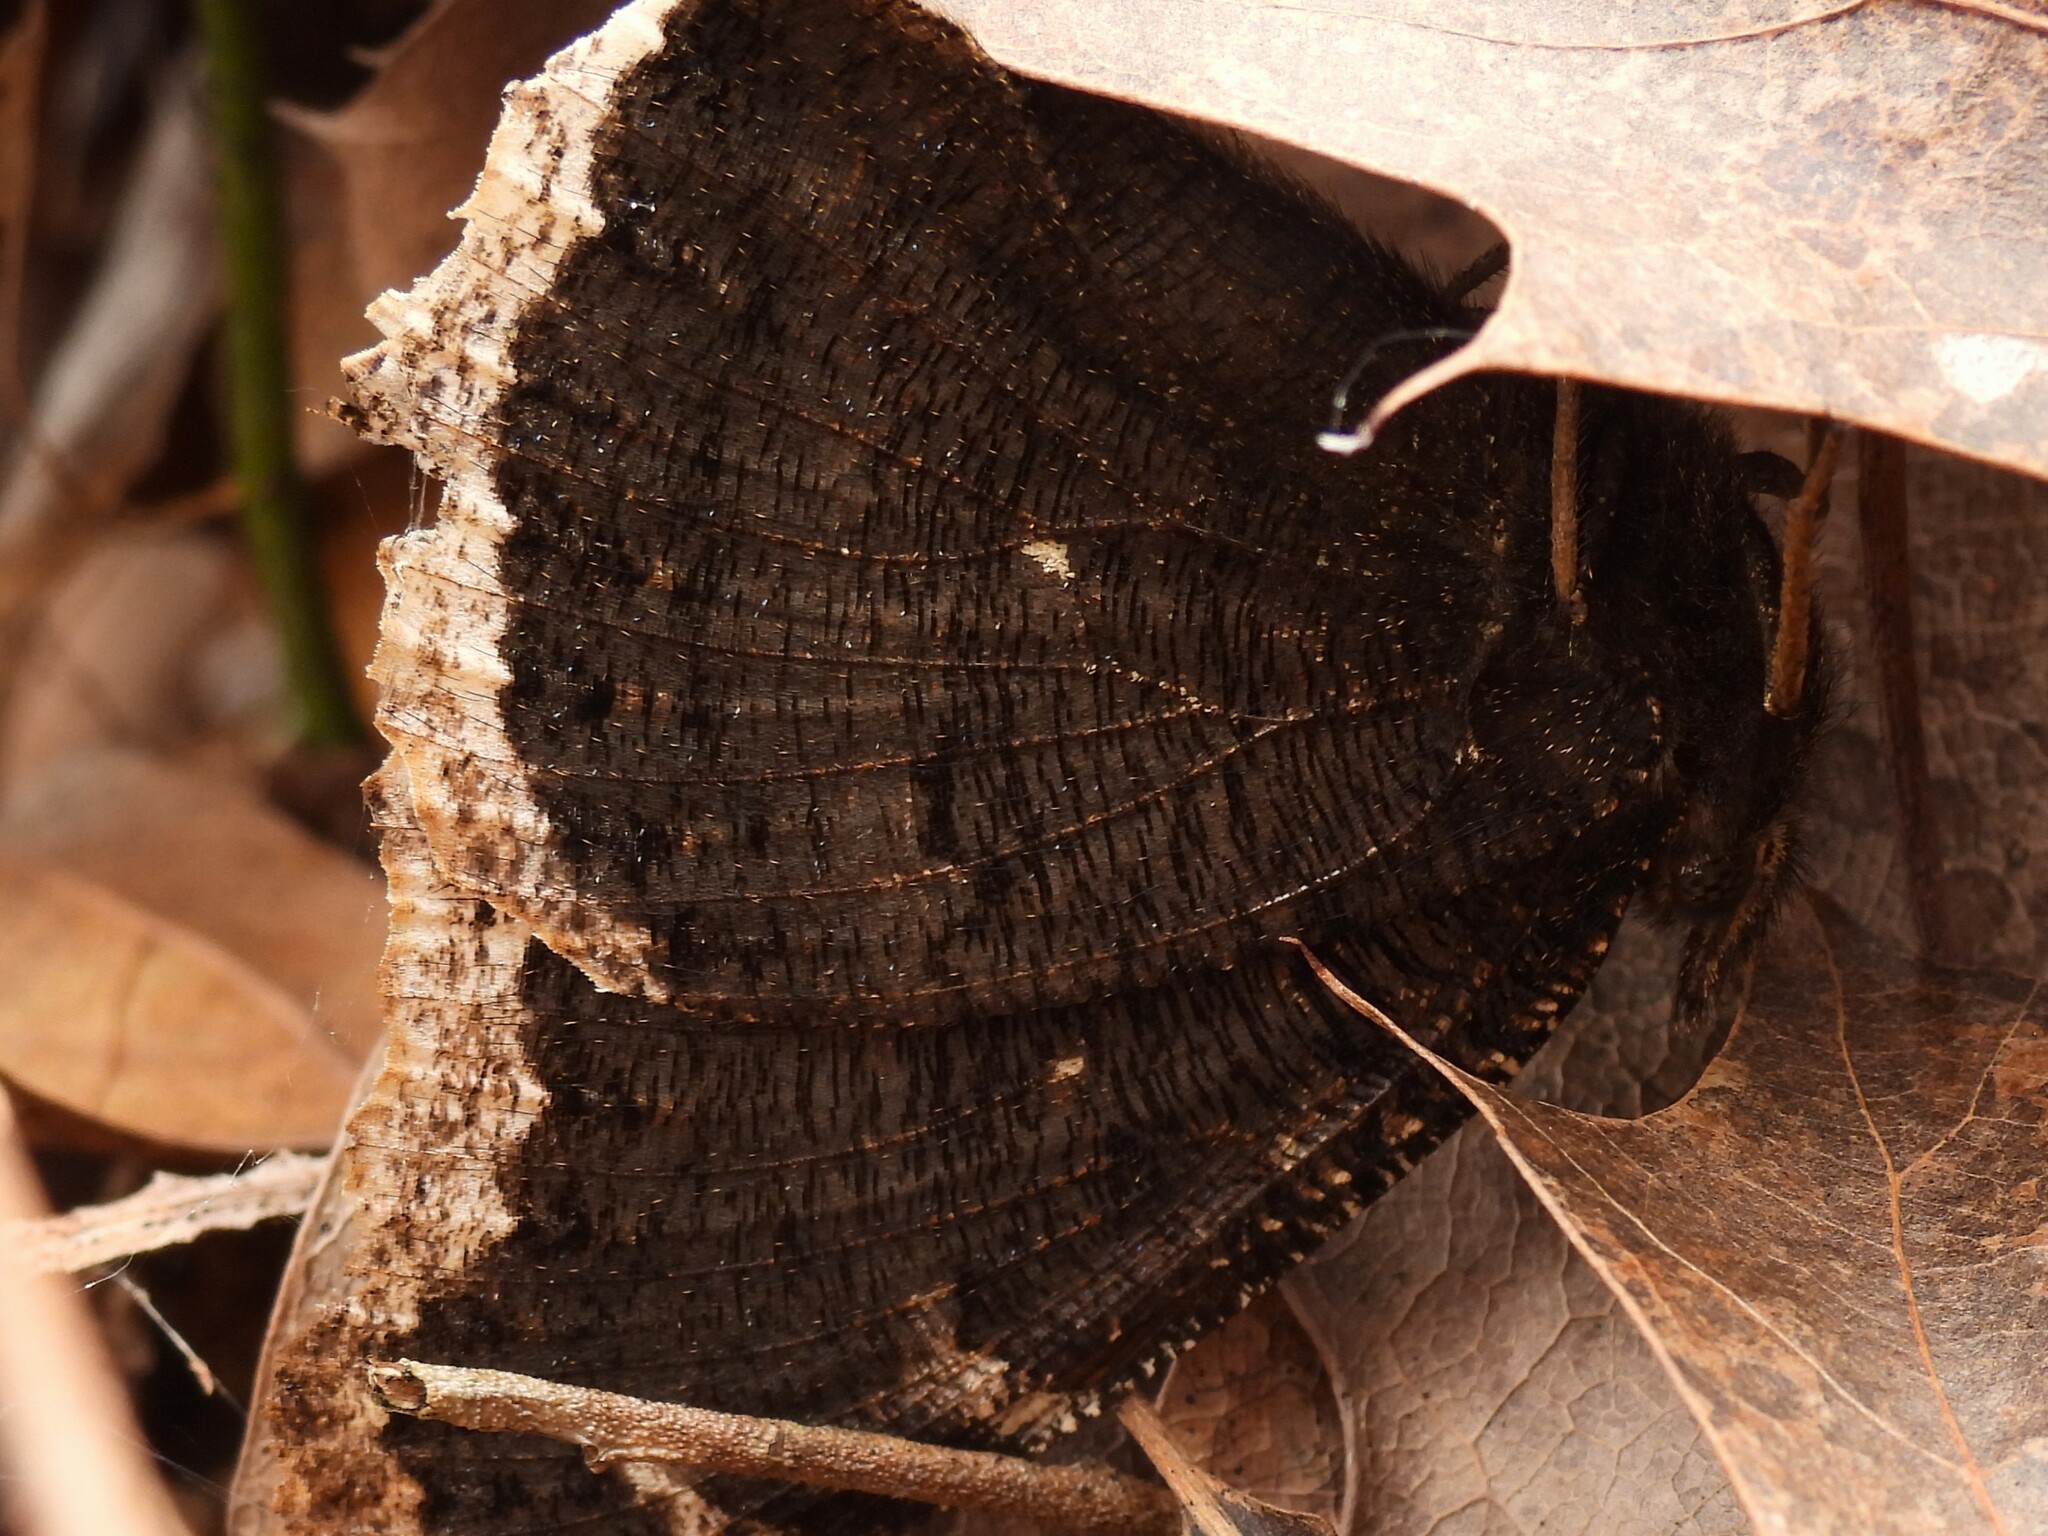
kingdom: Animalia
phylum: Arthropoda
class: Insecta
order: Lepidoptera
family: Nymphalidae
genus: Nymphalis
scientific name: Nymphalis antiopa
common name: Camberwell beauty
